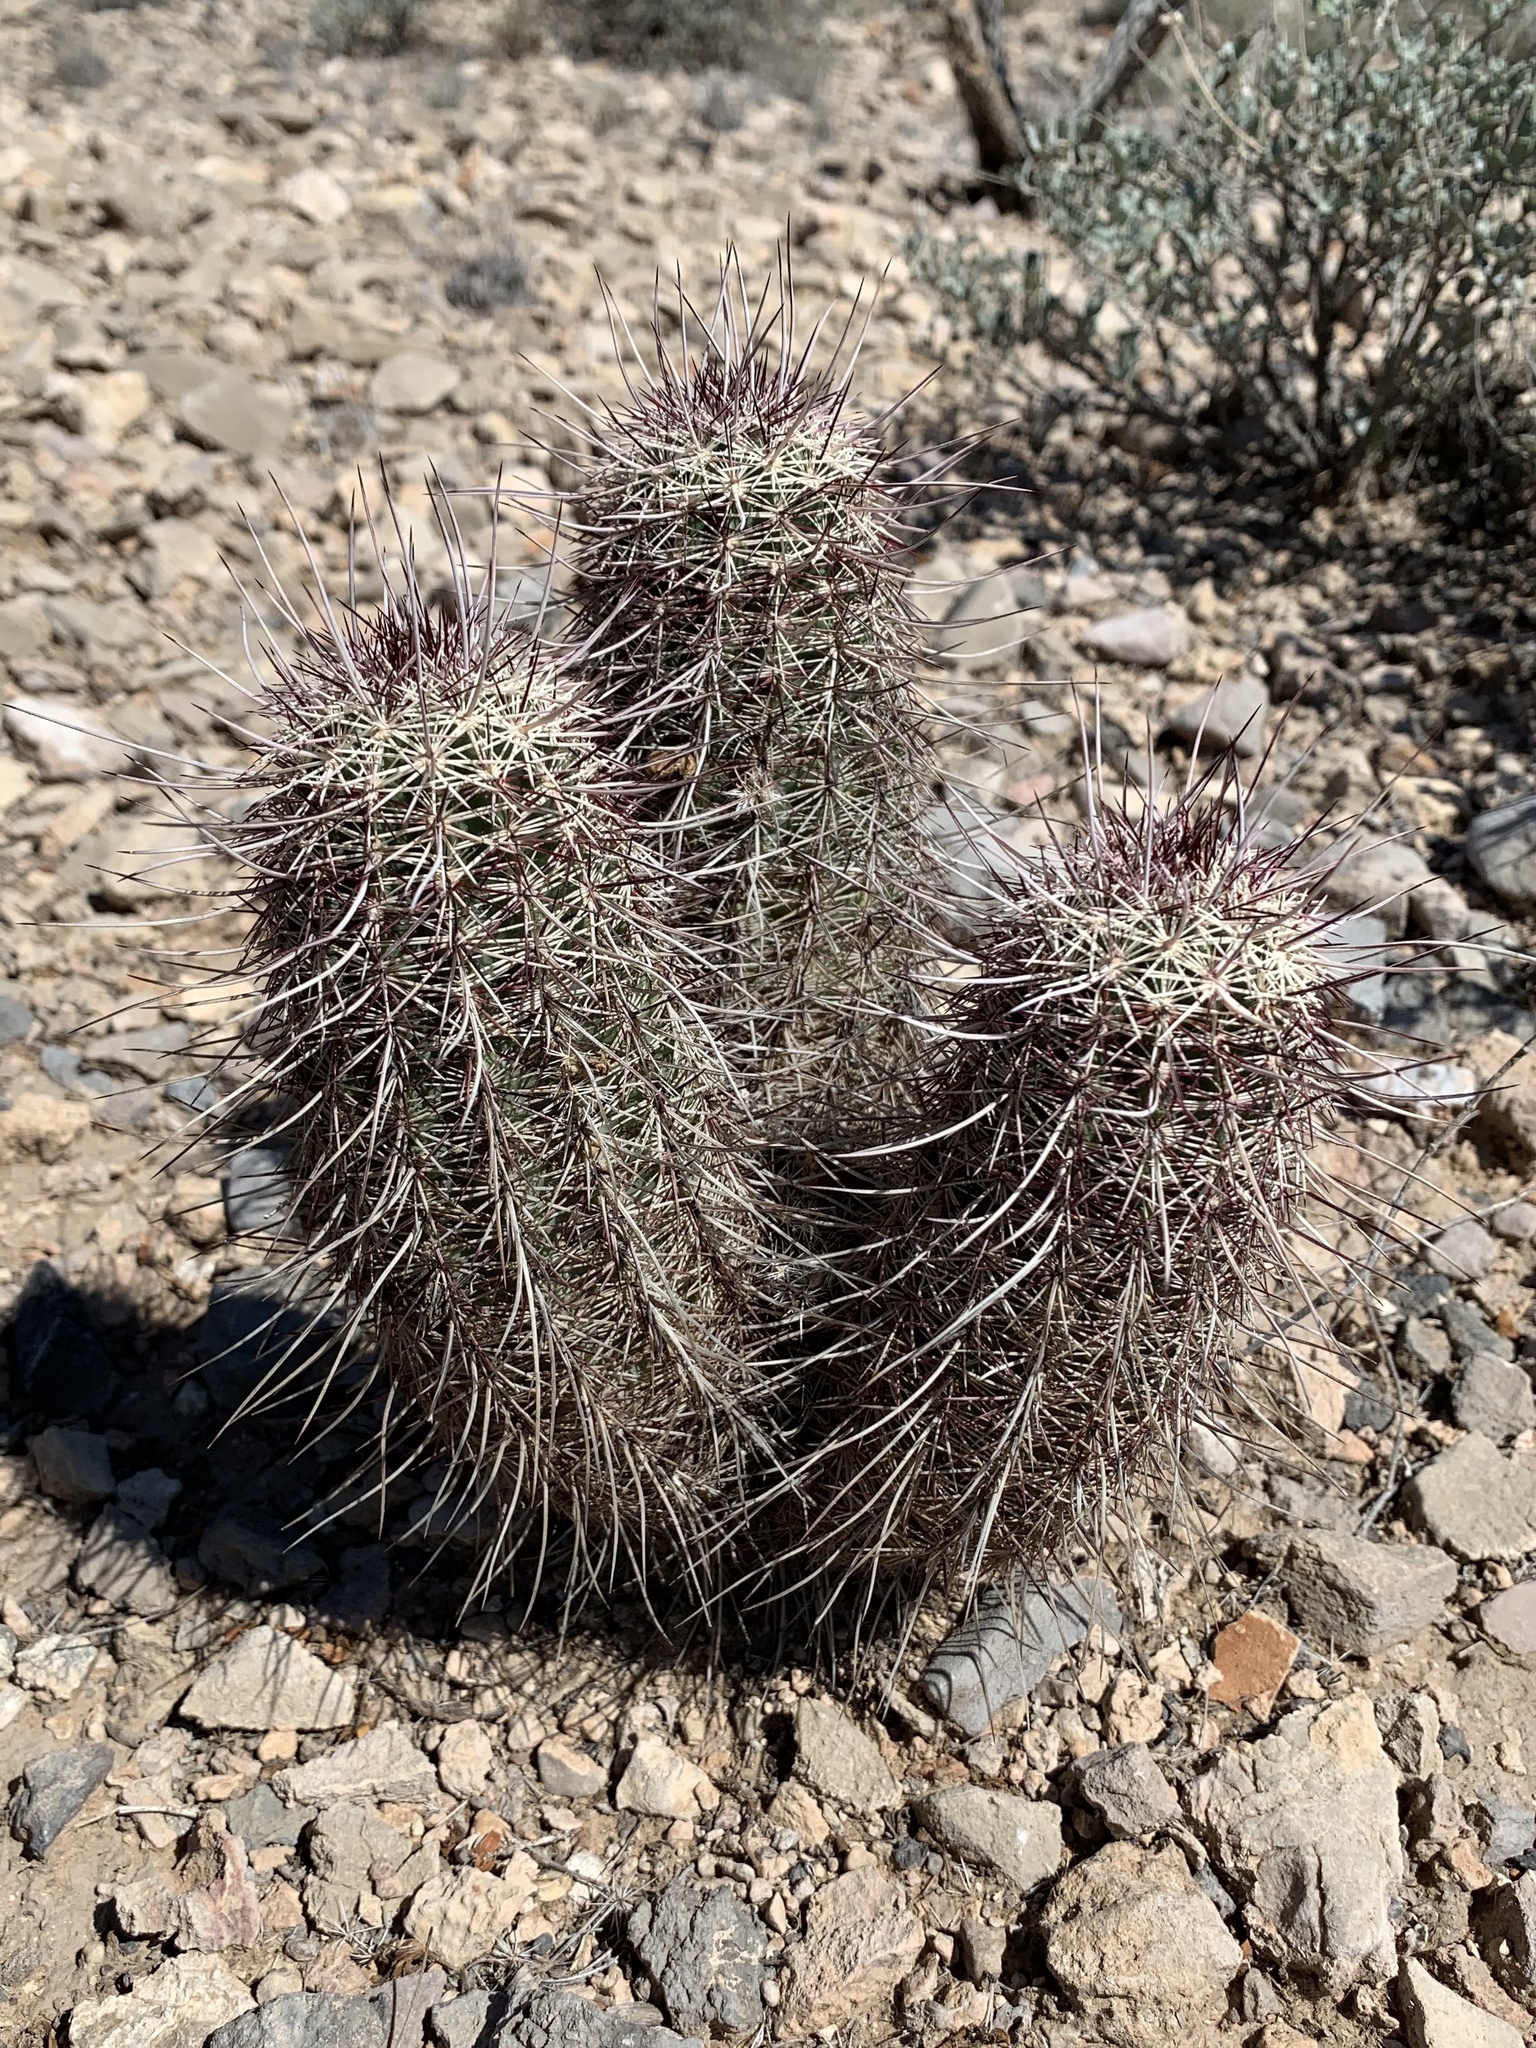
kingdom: Plantae
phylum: Tracheophyta
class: Magnoliopsida
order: Caryophyllales
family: Cactaceae
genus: Echinocereus
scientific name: Echinocereus viridiflorus
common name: Nylon hedgehog cactus
